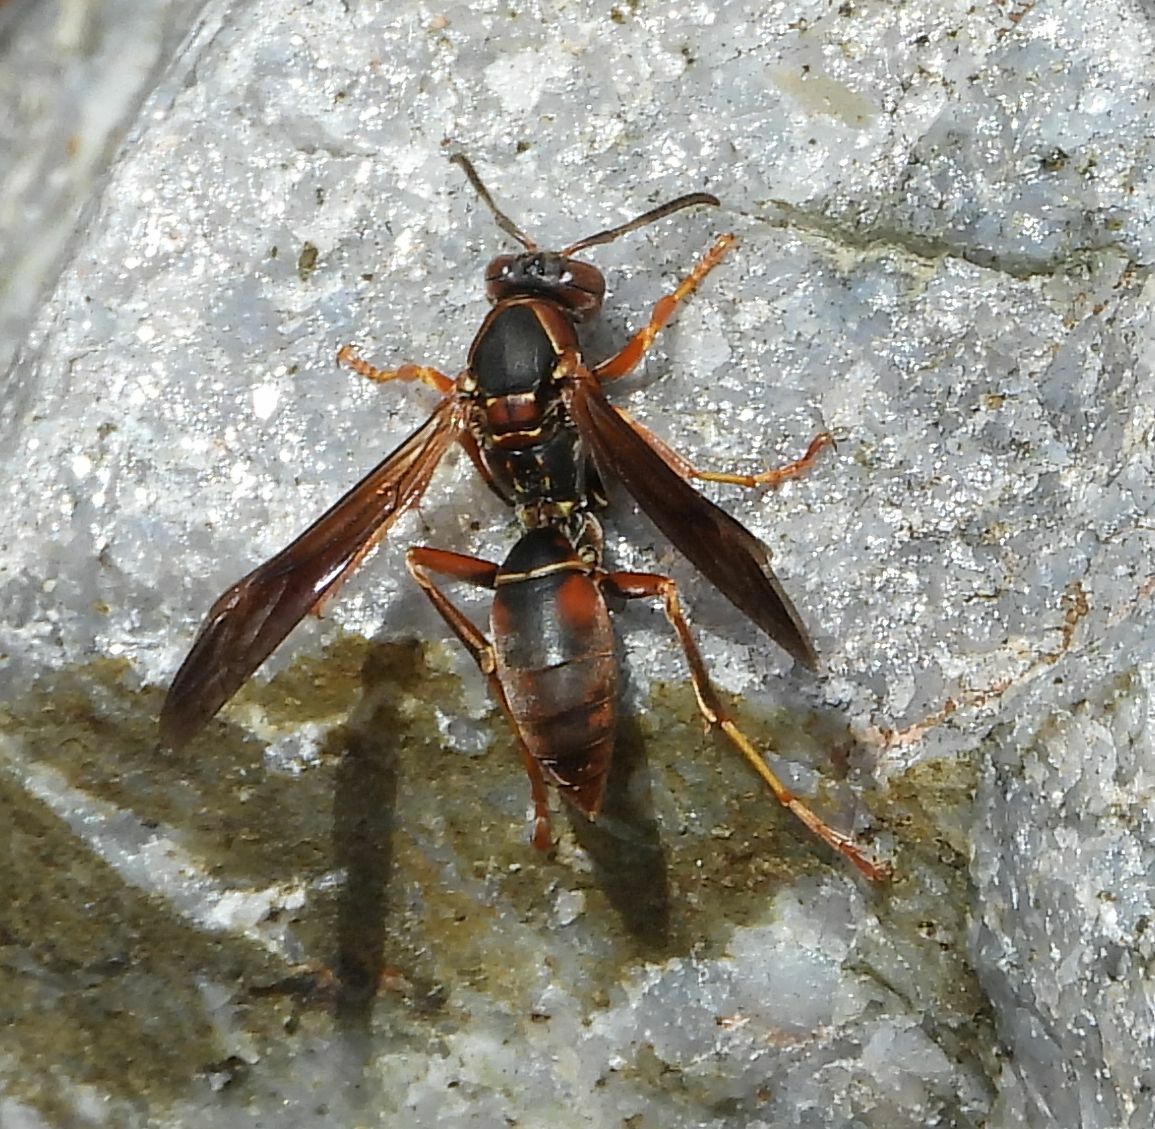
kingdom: Animalia
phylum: Arthropoda
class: Insecta
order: Hymenoptera
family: Eumenidae
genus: Polistes
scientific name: Polistes fuscatus
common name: Dark paper wasp
